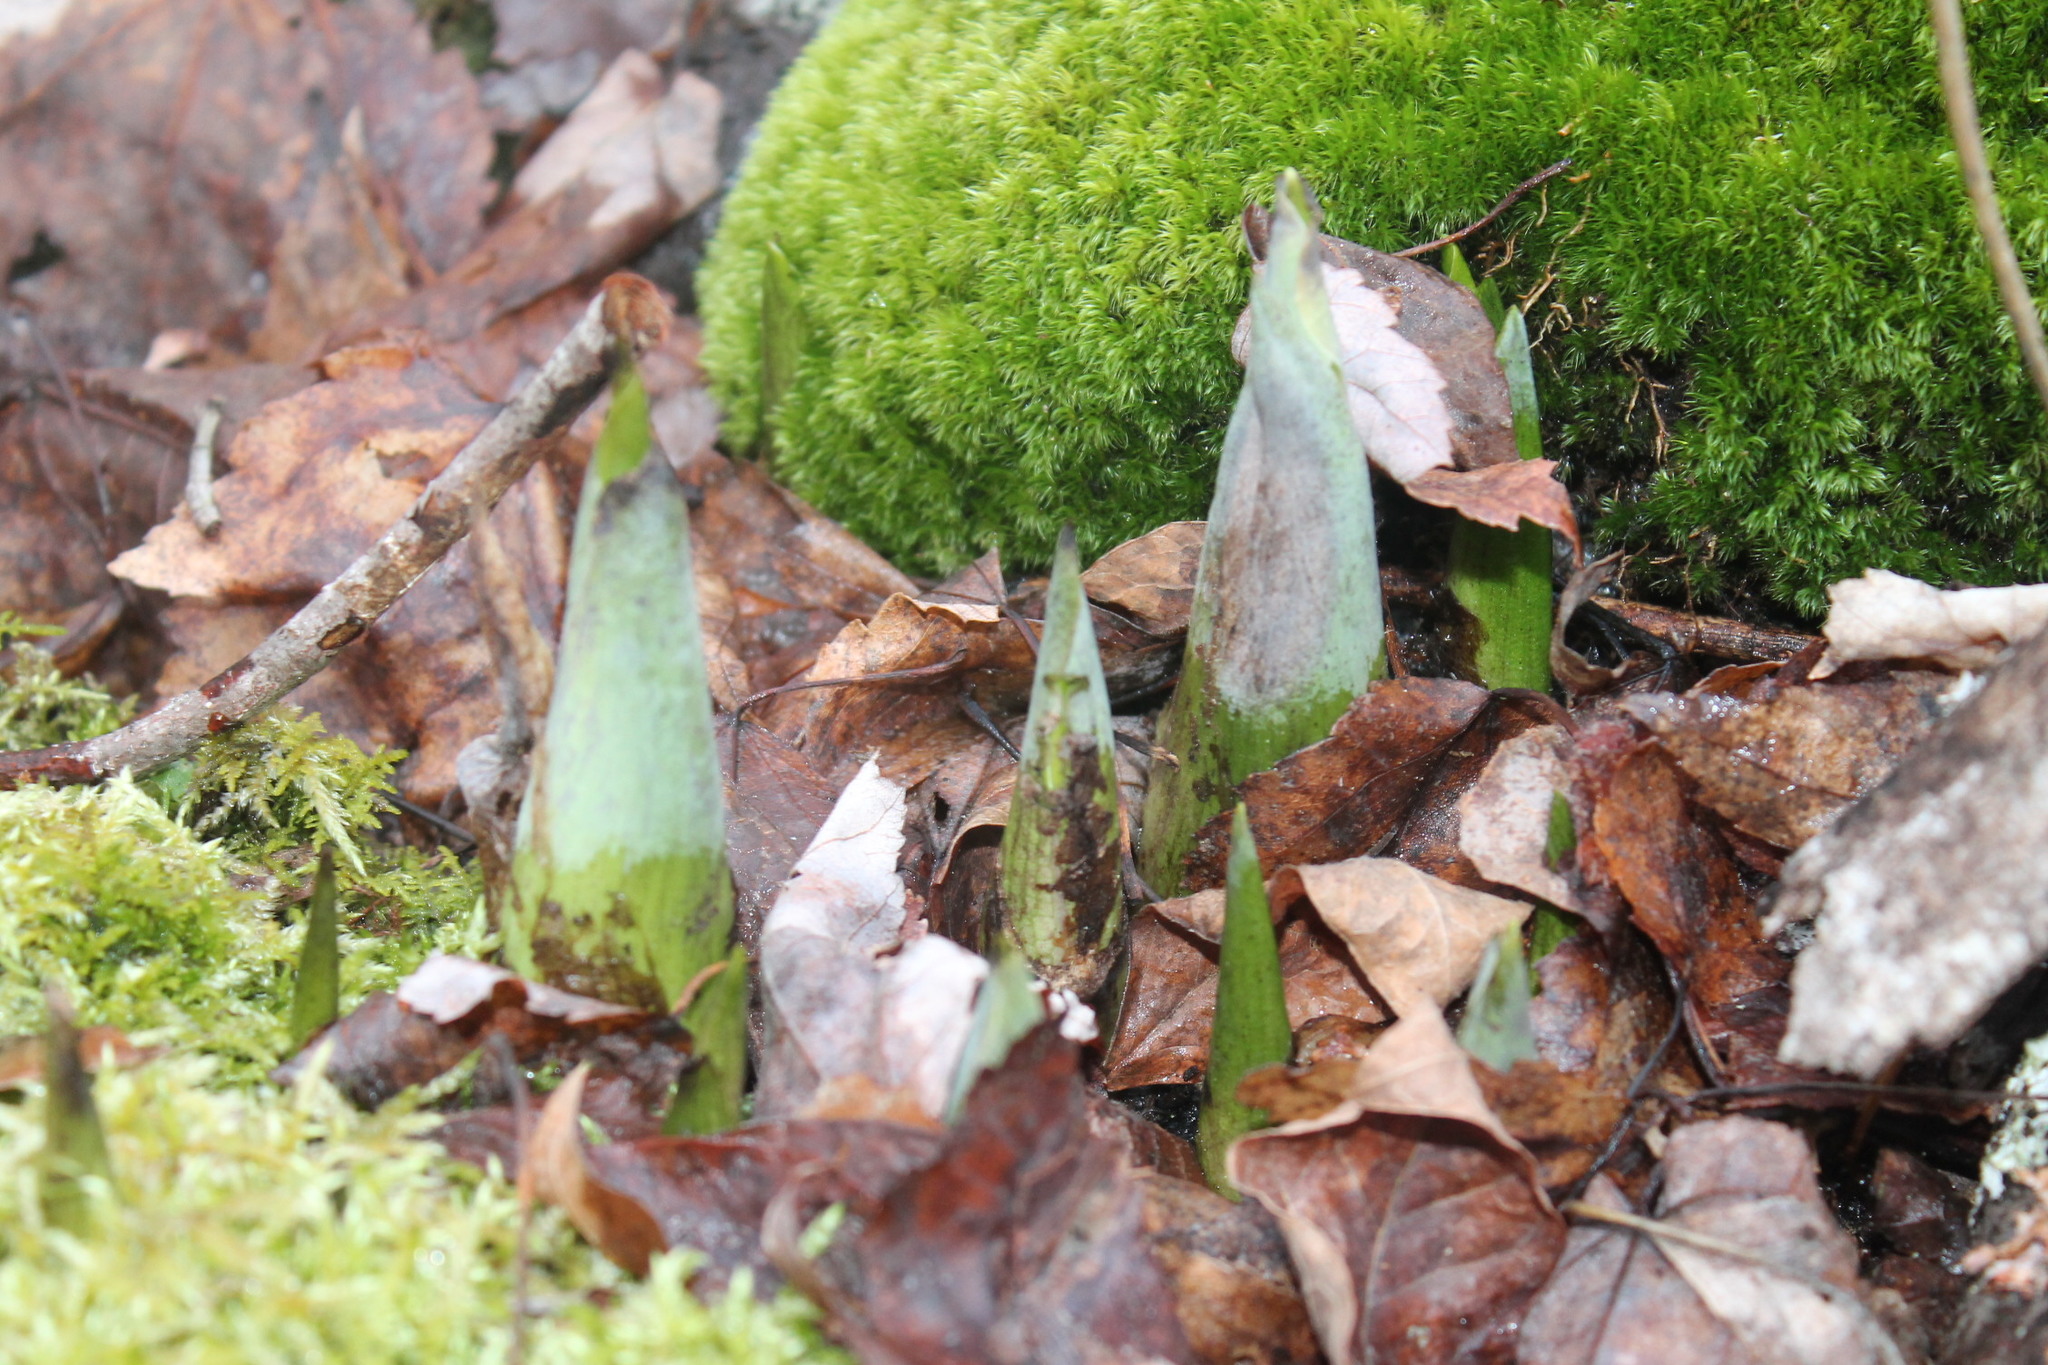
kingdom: Plantae
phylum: Tracheophyta
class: Liliopsida
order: Alismatales
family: Araceae
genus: Symplocarpus
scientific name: Symplocarpus foetidus
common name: Eastern skunk cabbage
